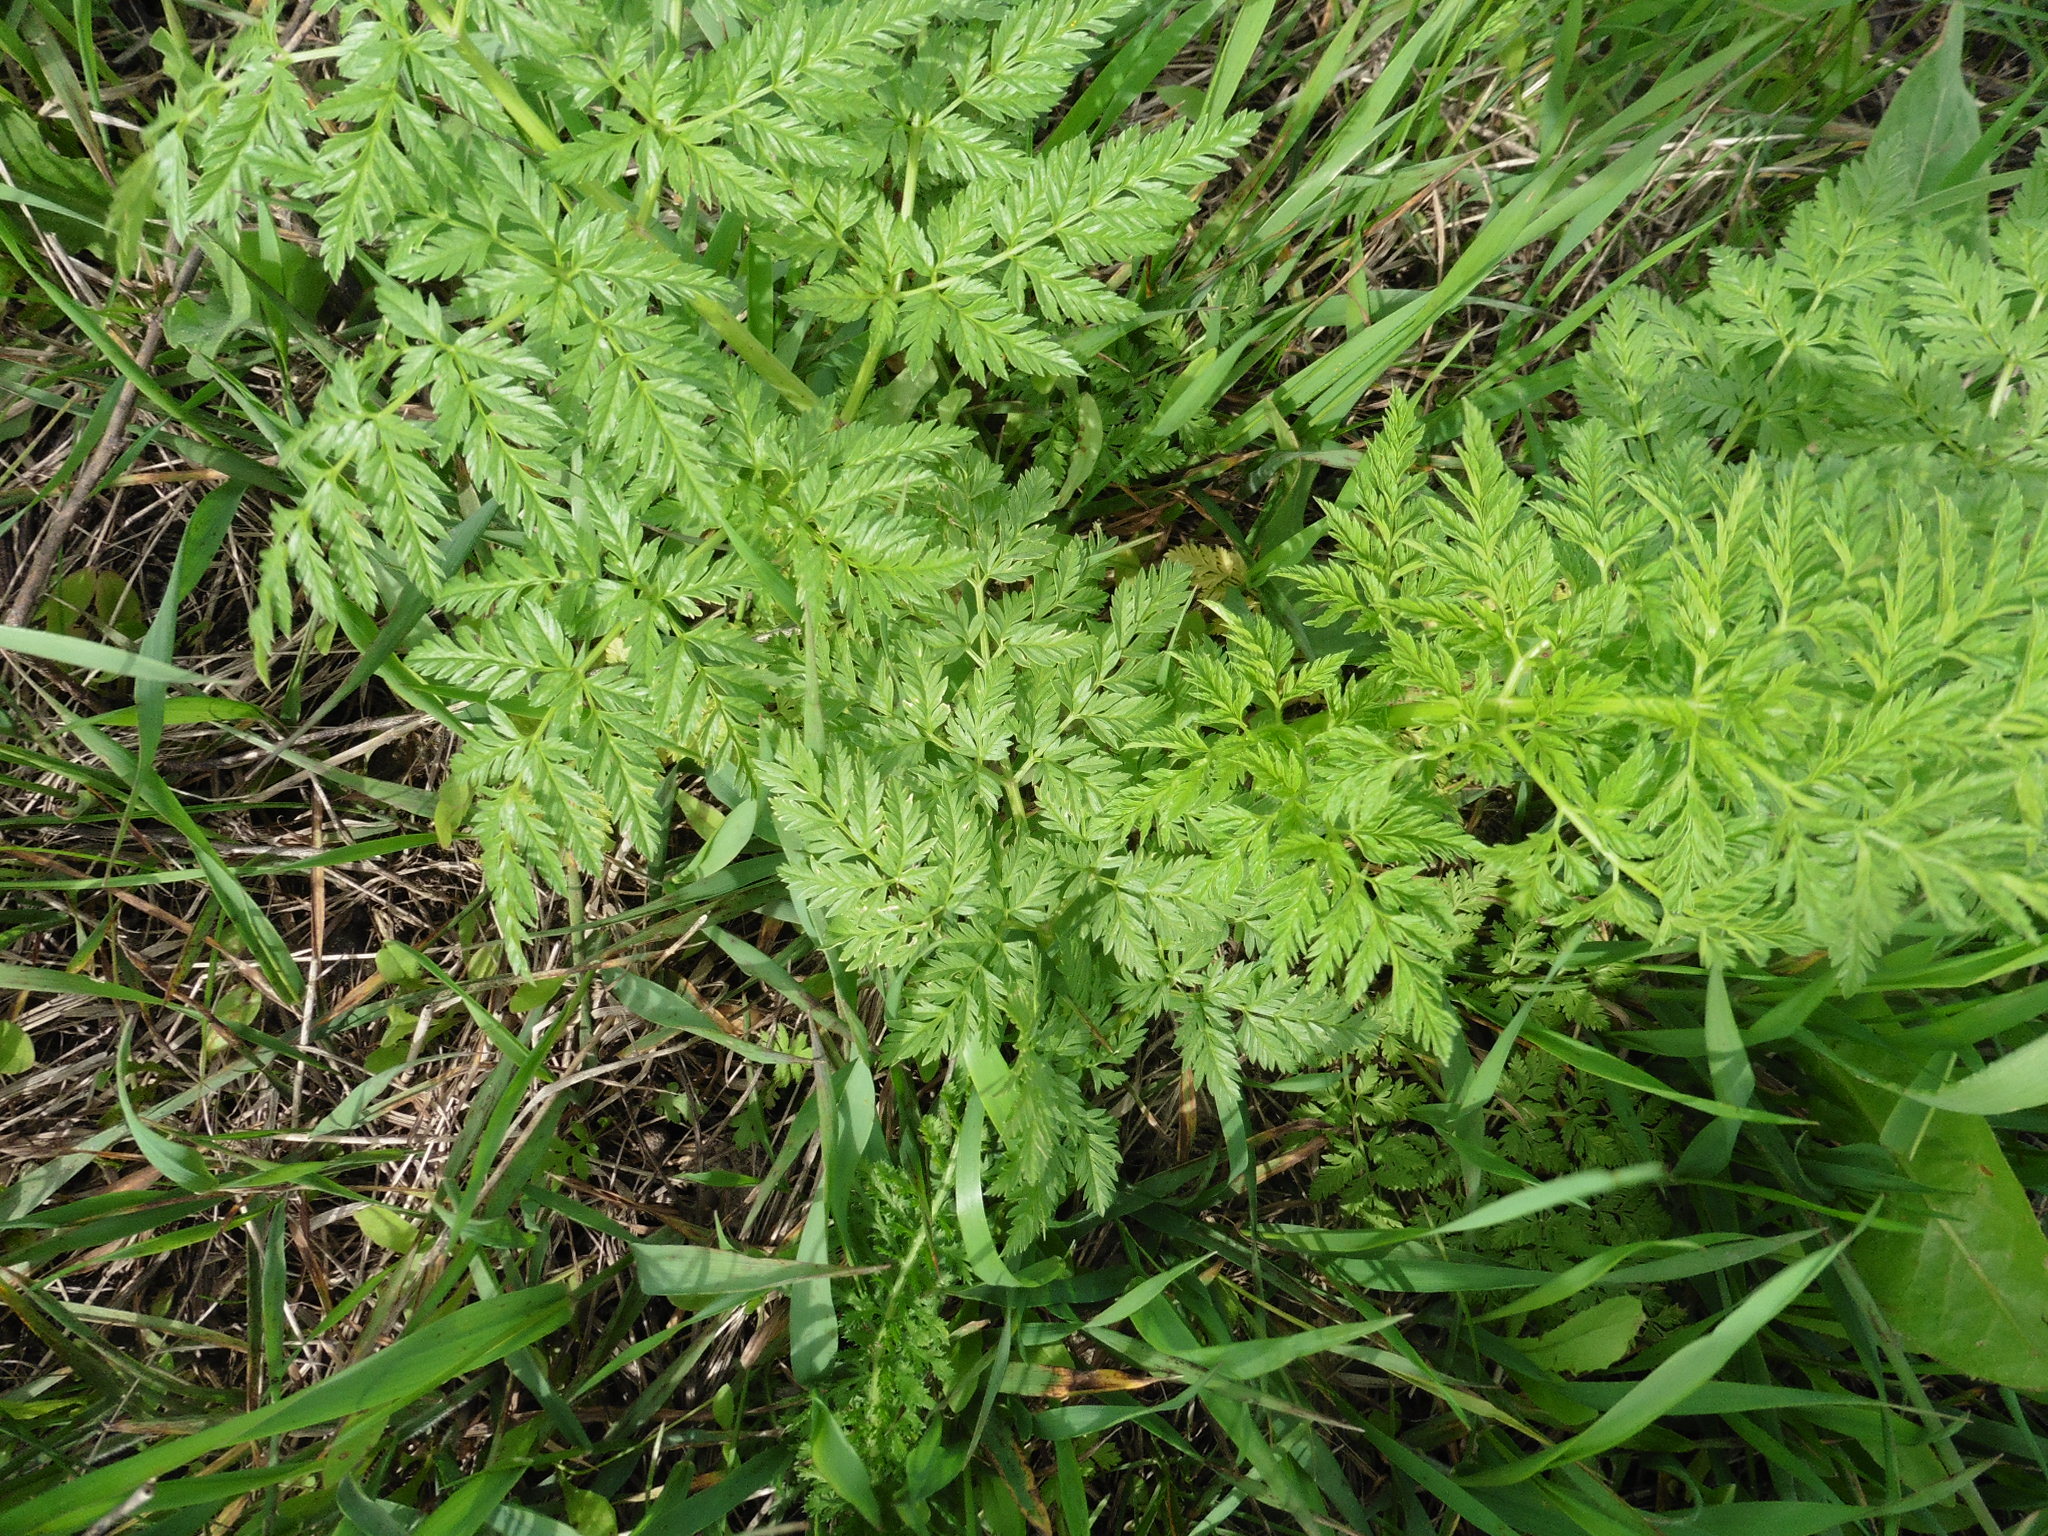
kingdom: Plantae
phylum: Tracheophyta
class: Magnoliopsida
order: Apiales
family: Apiaceae
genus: Anthriscus
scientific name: Anthriscus sylvestris
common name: Cow parsley
